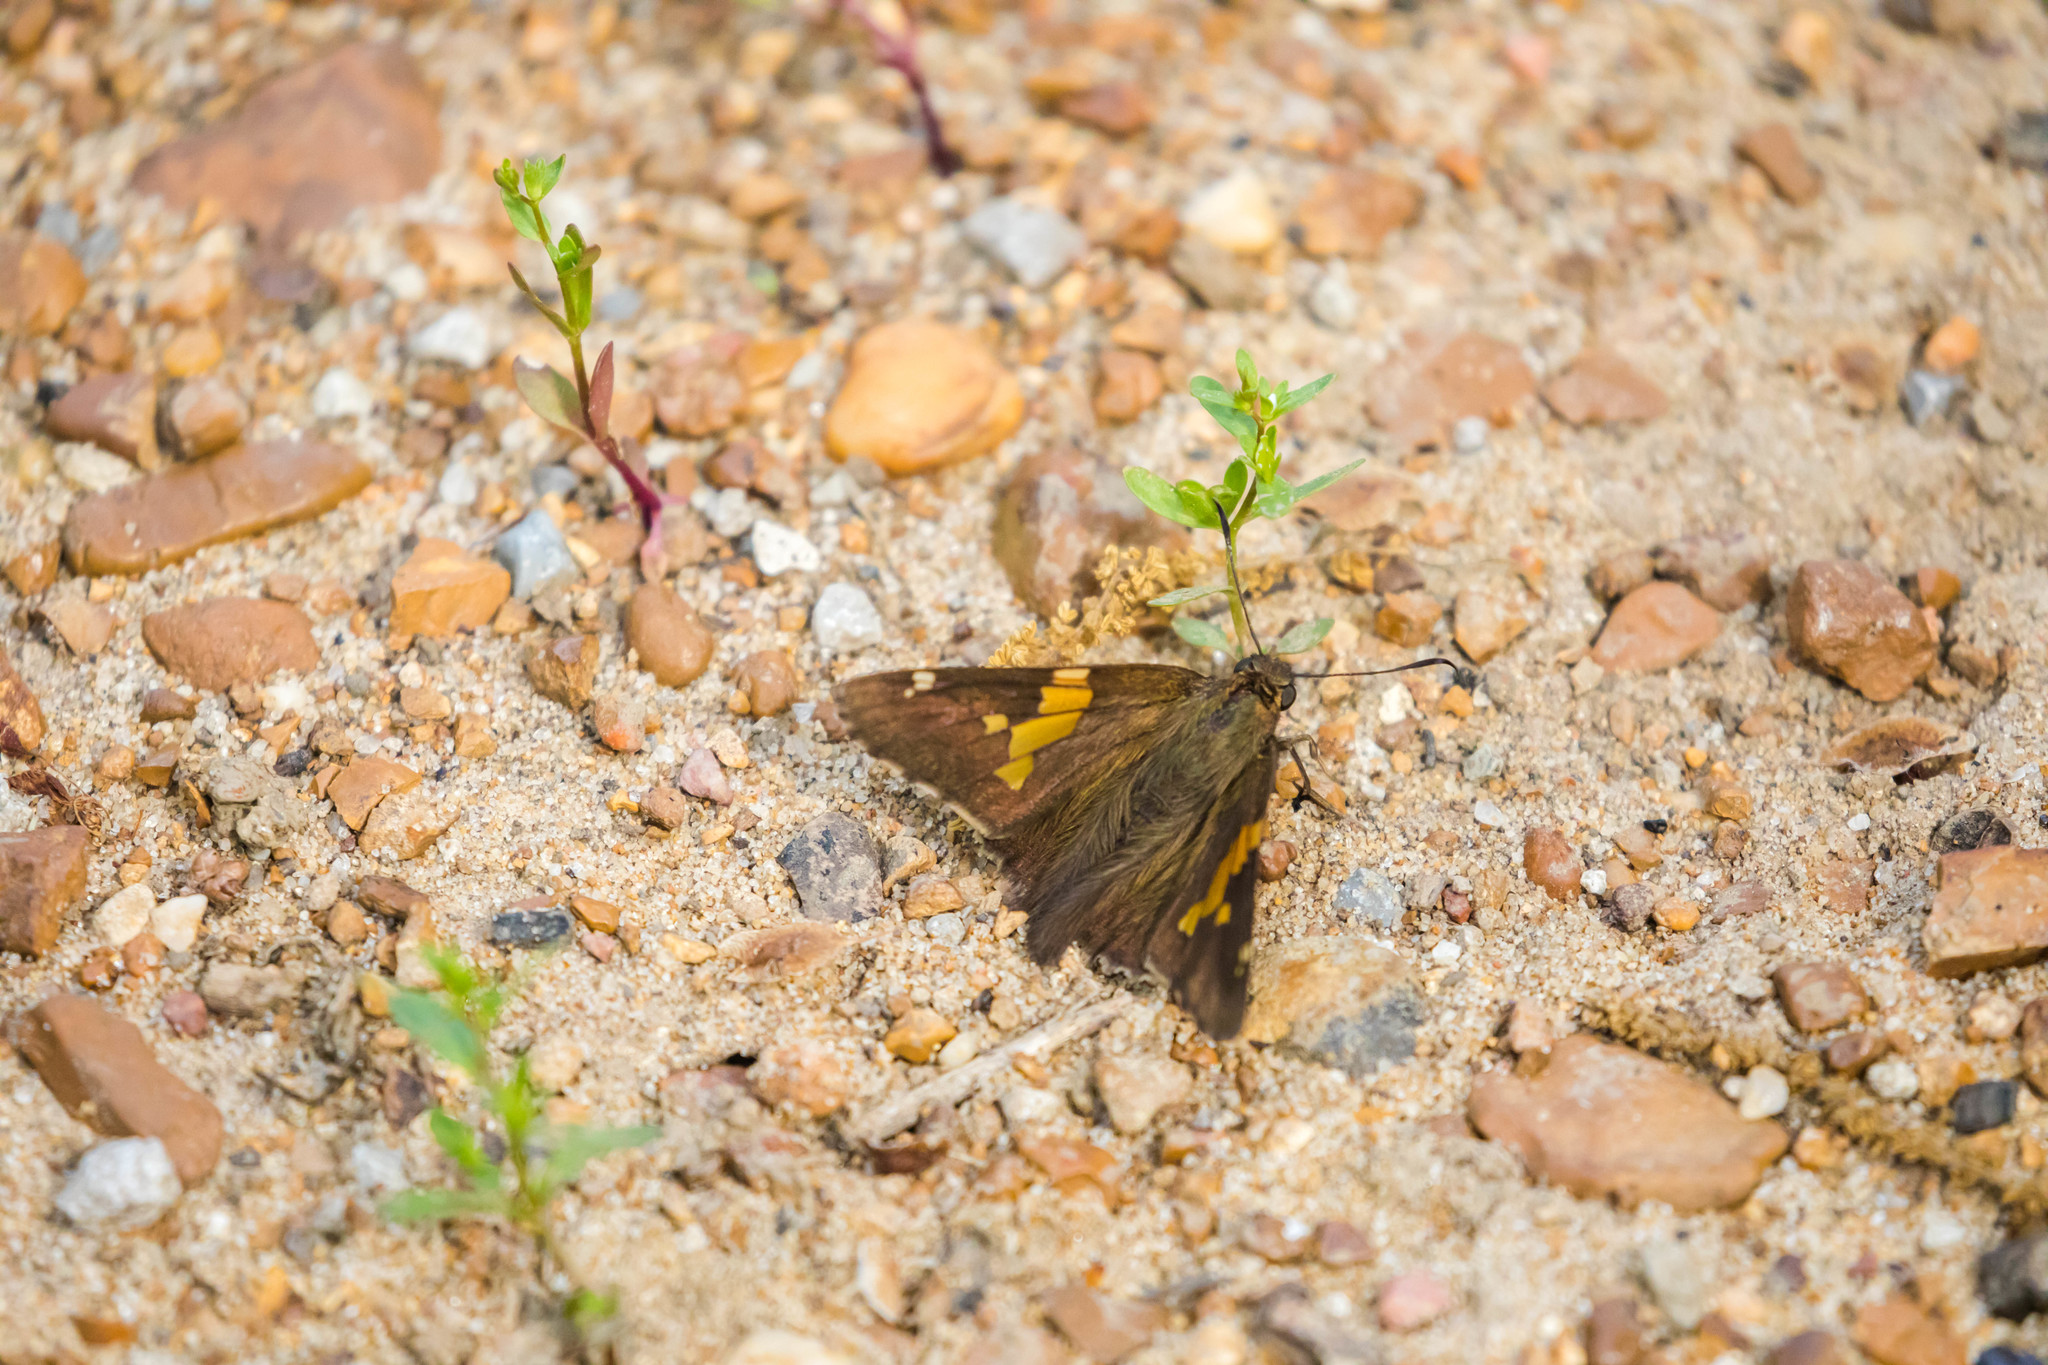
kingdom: Animalia
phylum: Arthropoda
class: Insecta
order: Lepidoptera
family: Hesperiidae
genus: Epargyreus
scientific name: Epargyreus clarus
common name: Silver-spotted skipper
